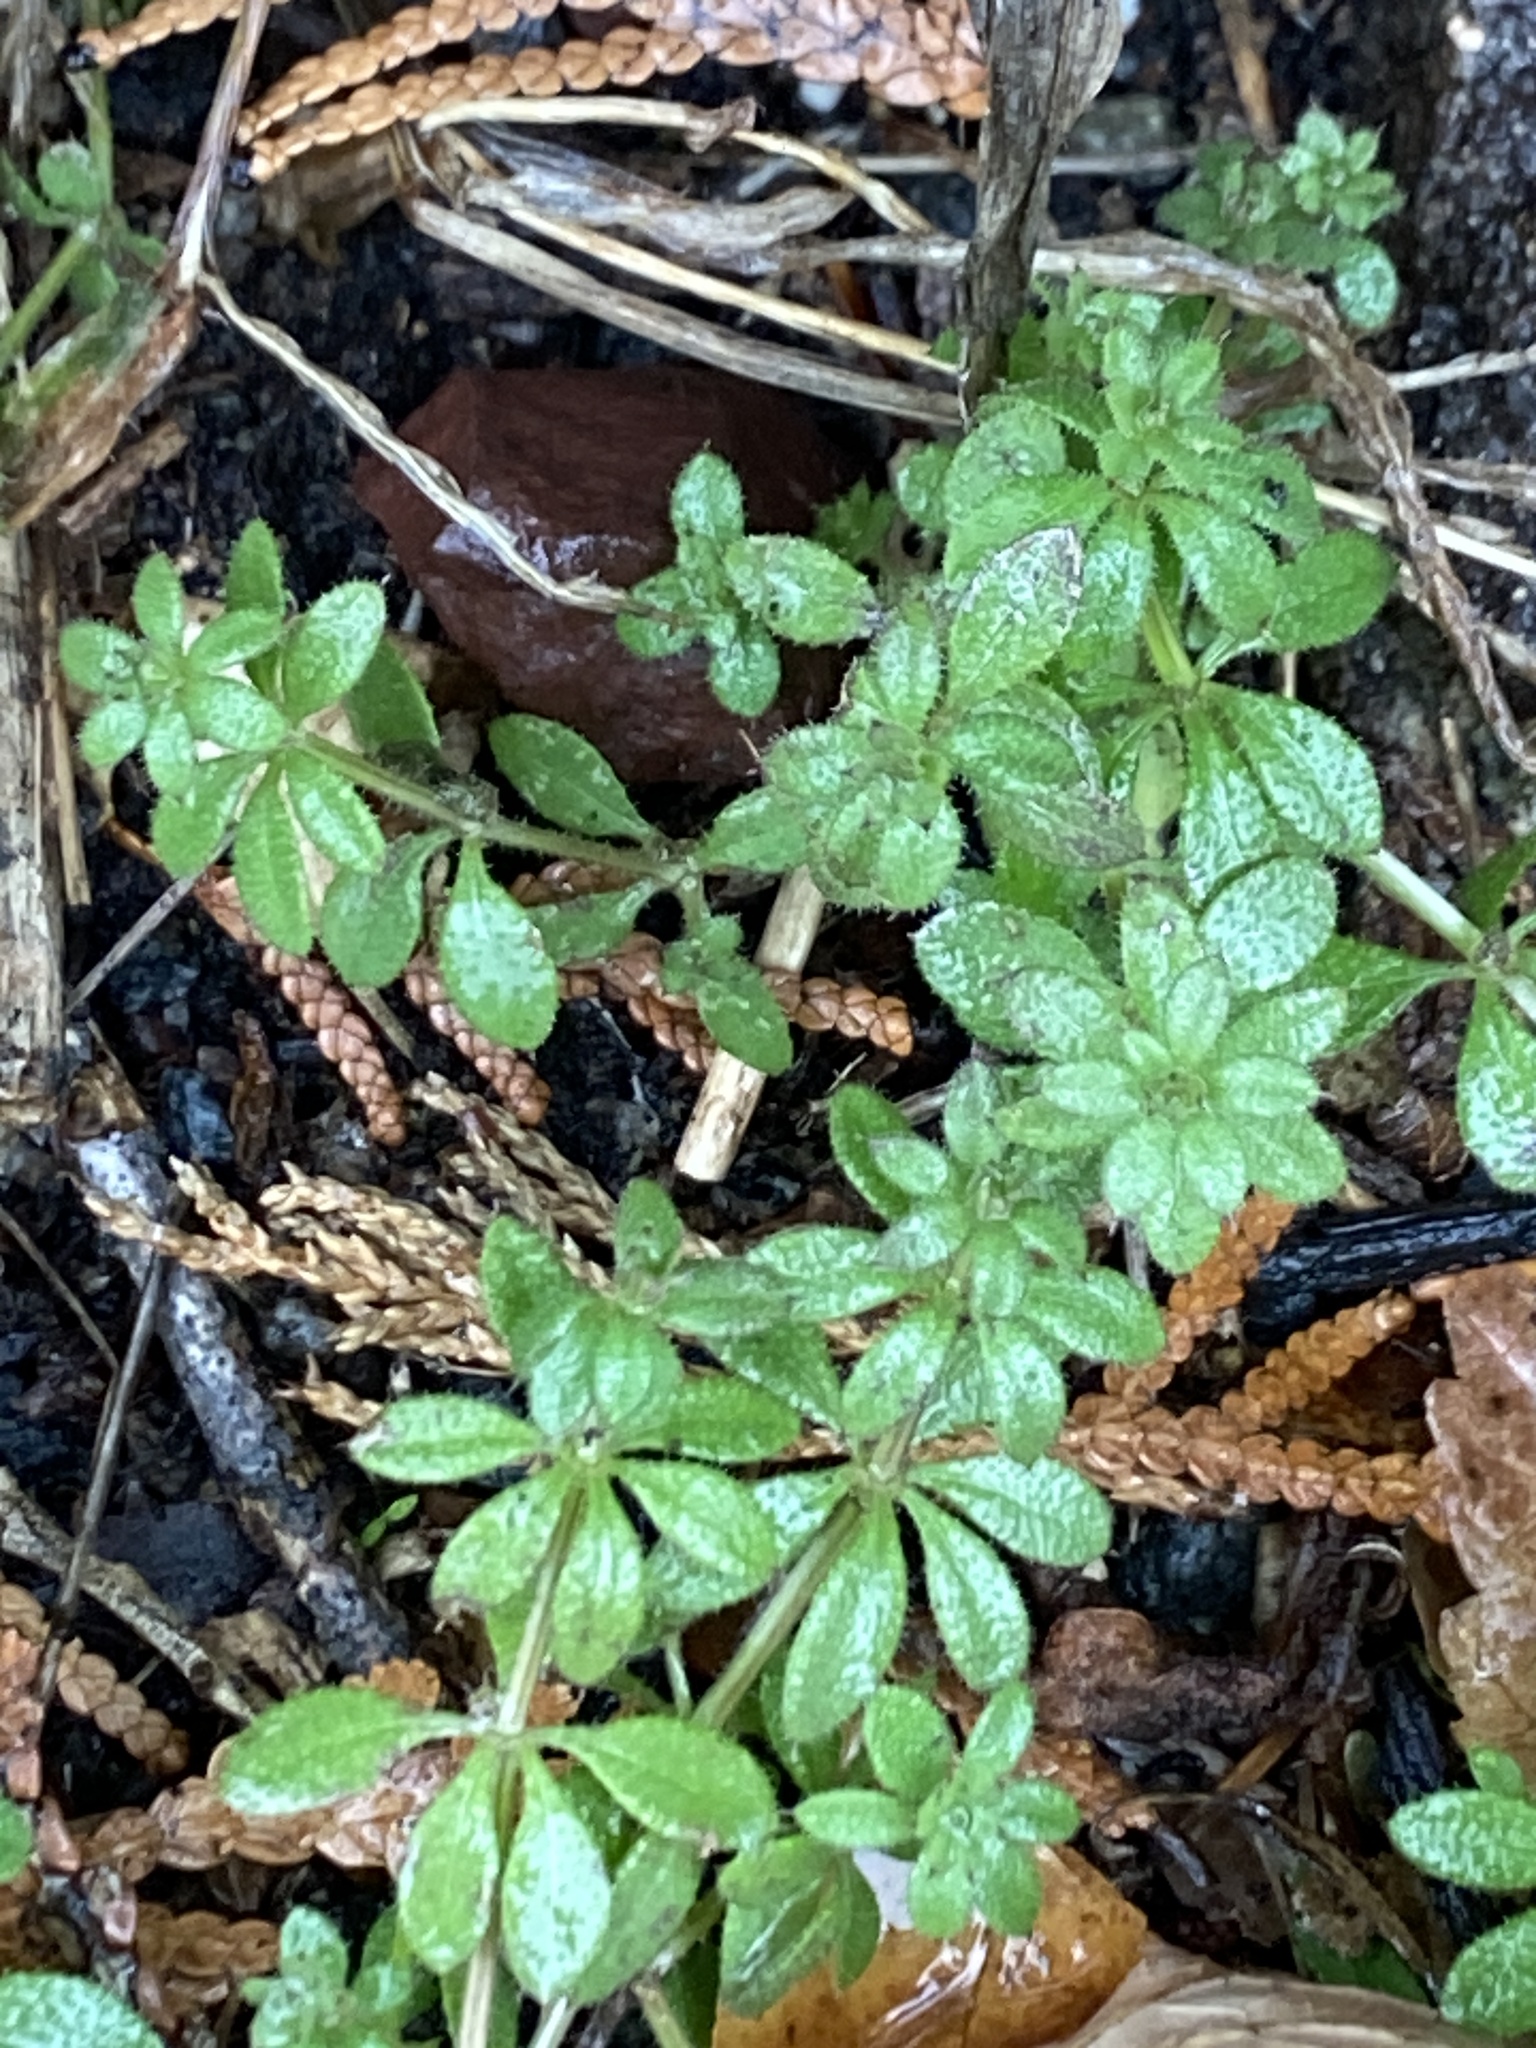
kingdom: Plantae
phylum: Tracheophyta
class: Magnoliopsida
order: Gentianales
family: Rubiaceae
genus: Galium
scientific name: Galium aparine
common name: Cleavers
